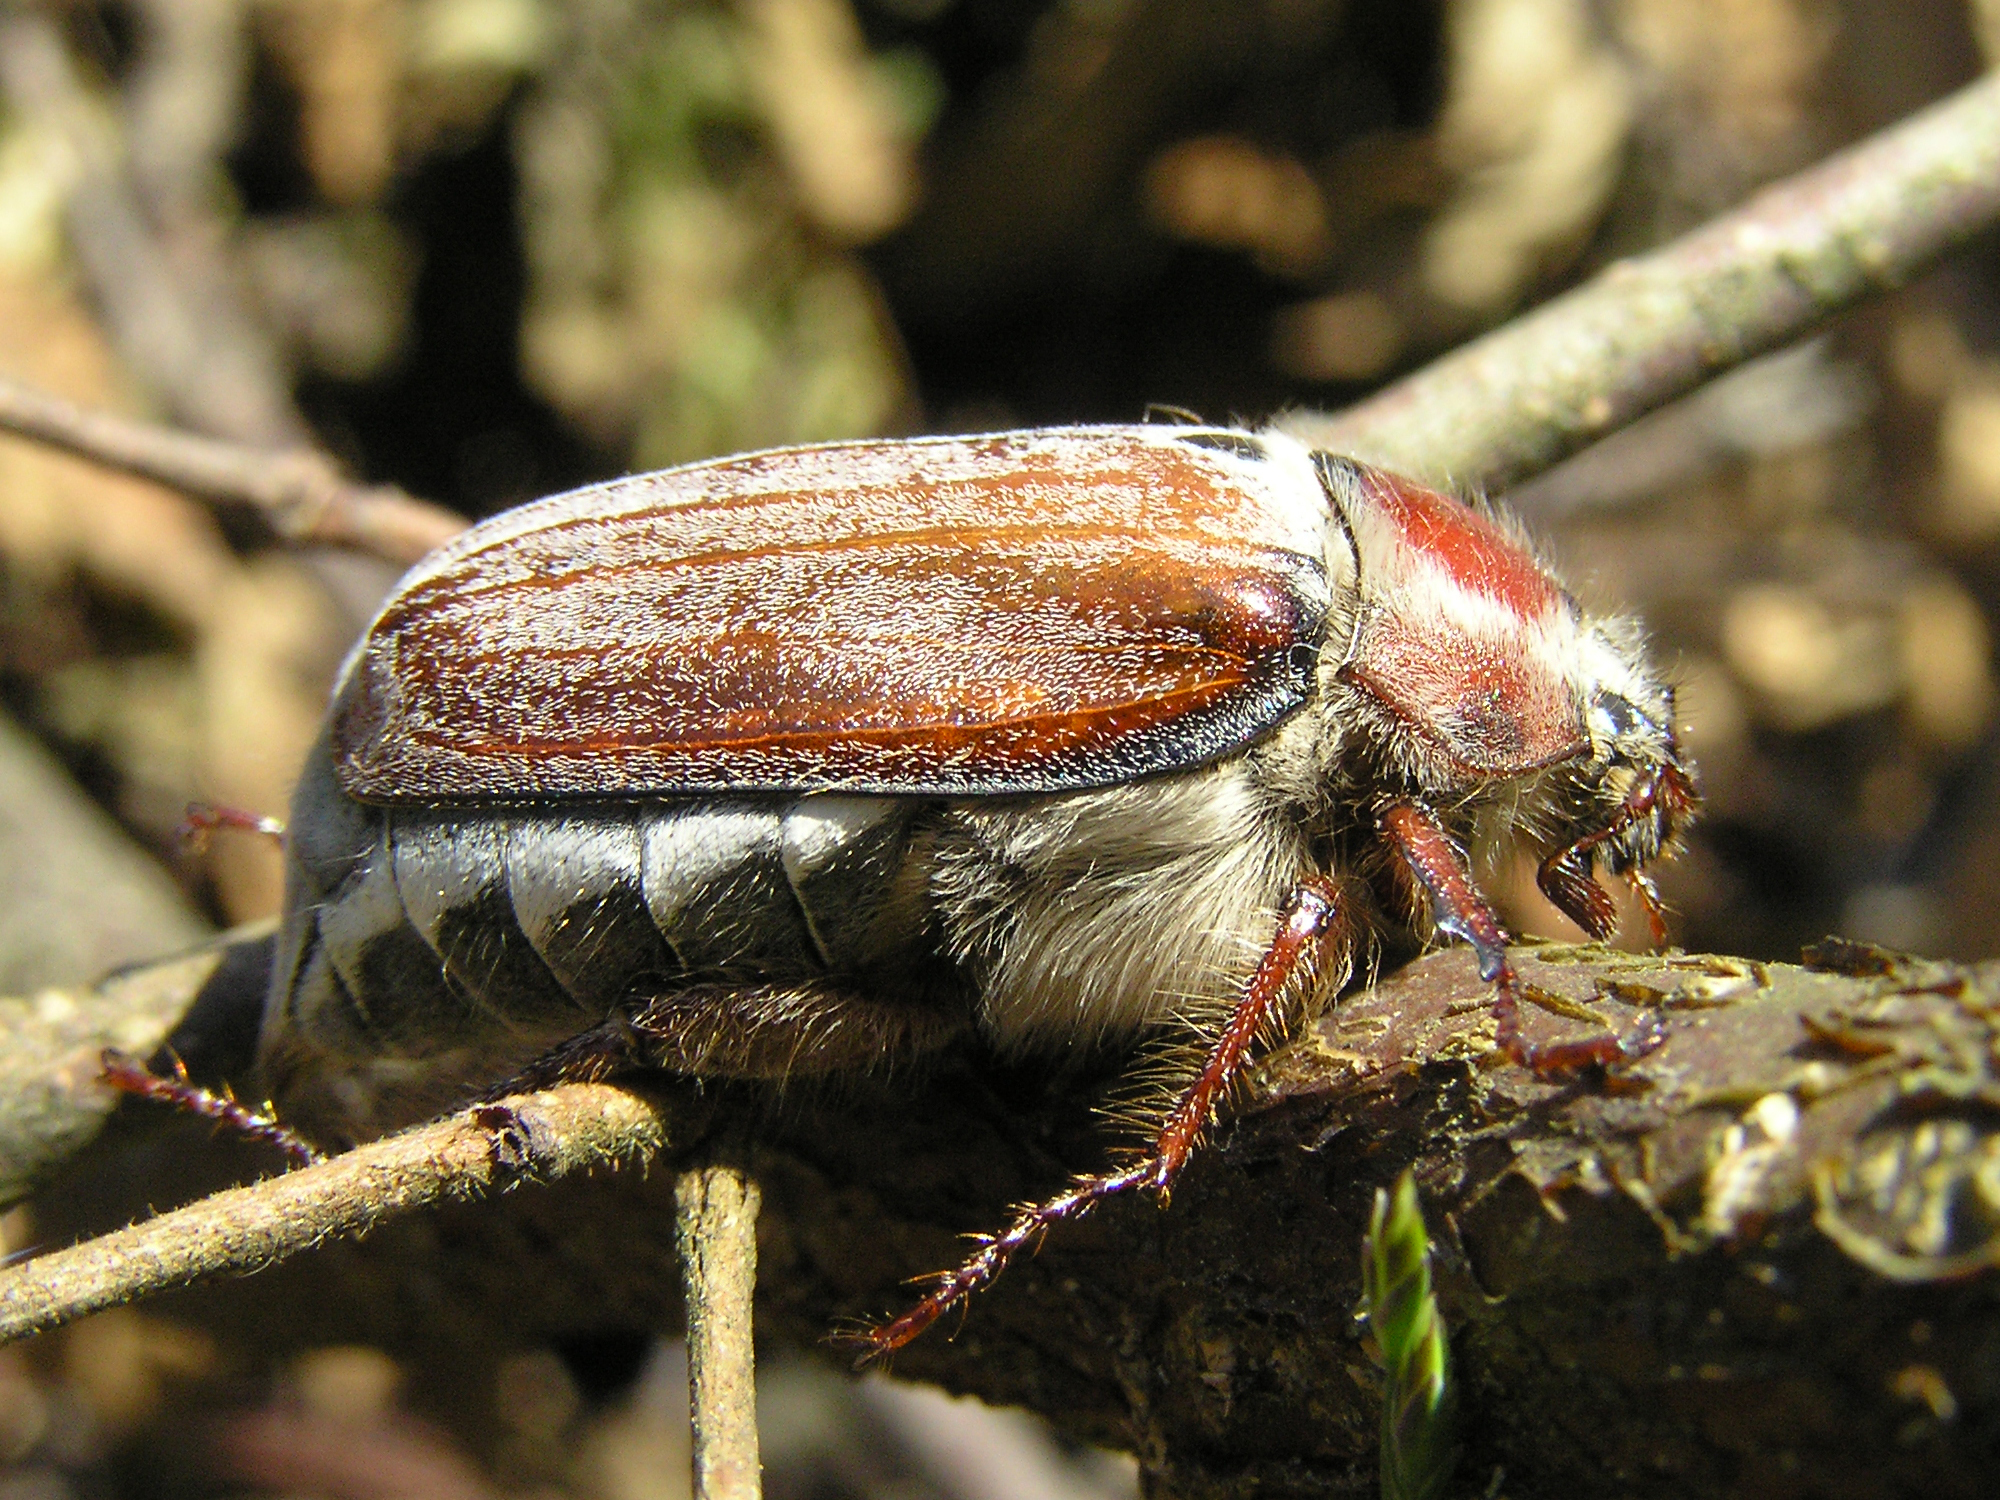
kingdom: Animalia
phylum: Arthropoda
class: Insecta
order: Coleoptera
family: Scarabaeidae
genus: Melolontha
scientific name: Melolontha hippocastani
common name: Chestnut cockchafer
